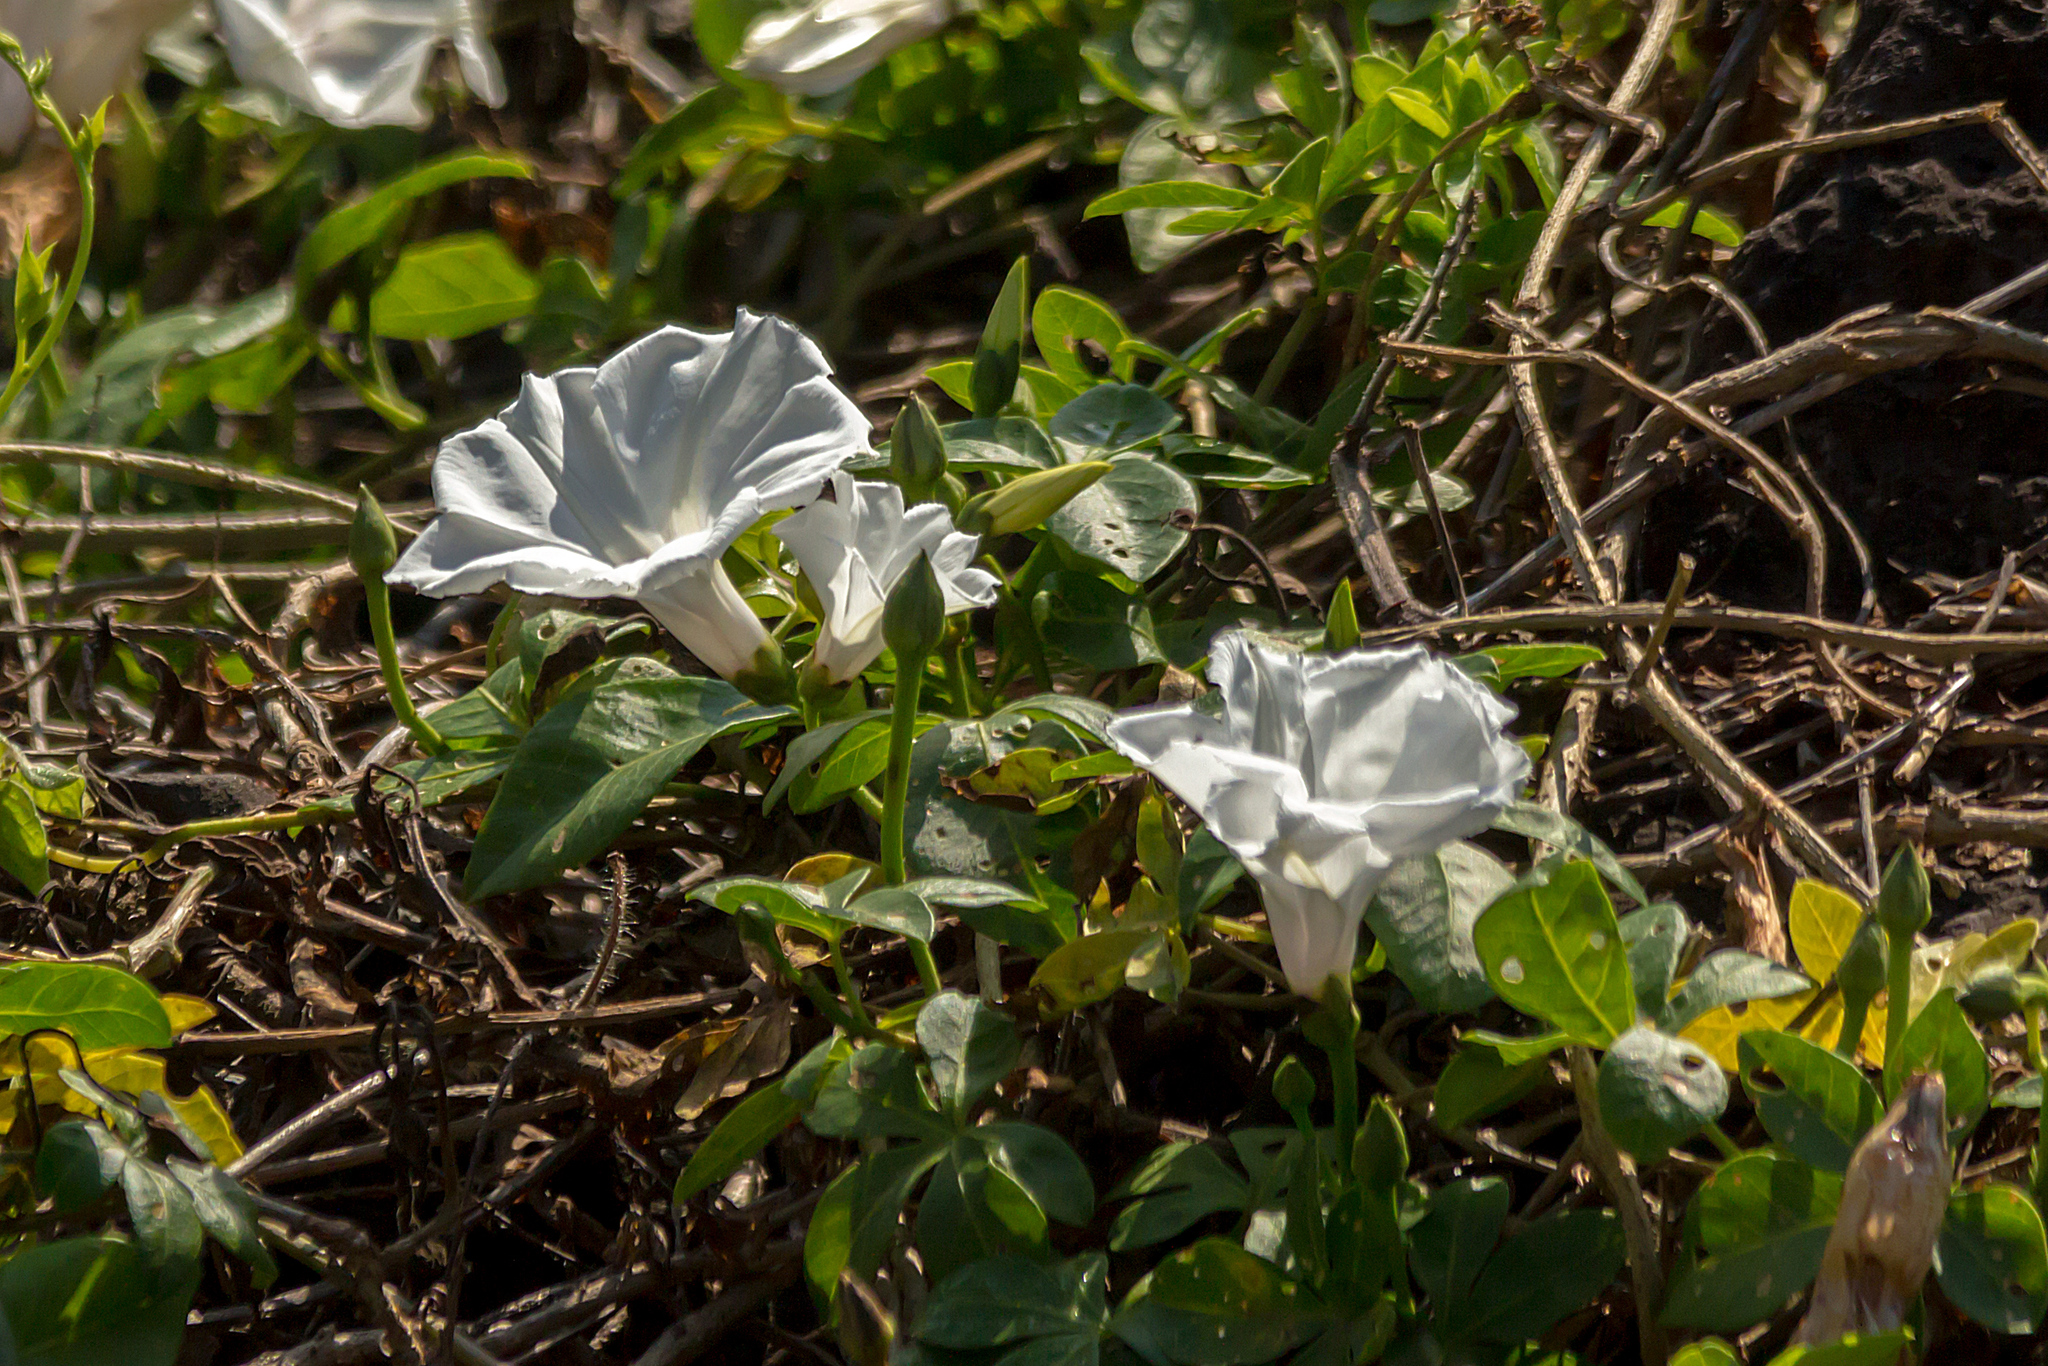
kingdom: Plantae
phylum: Tracheophyta
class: Magnoliopsida
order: Solanales
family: Convolvulaceae
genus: Ipomoea
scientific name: Ipomoea cairica
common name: Mile a minute vine
